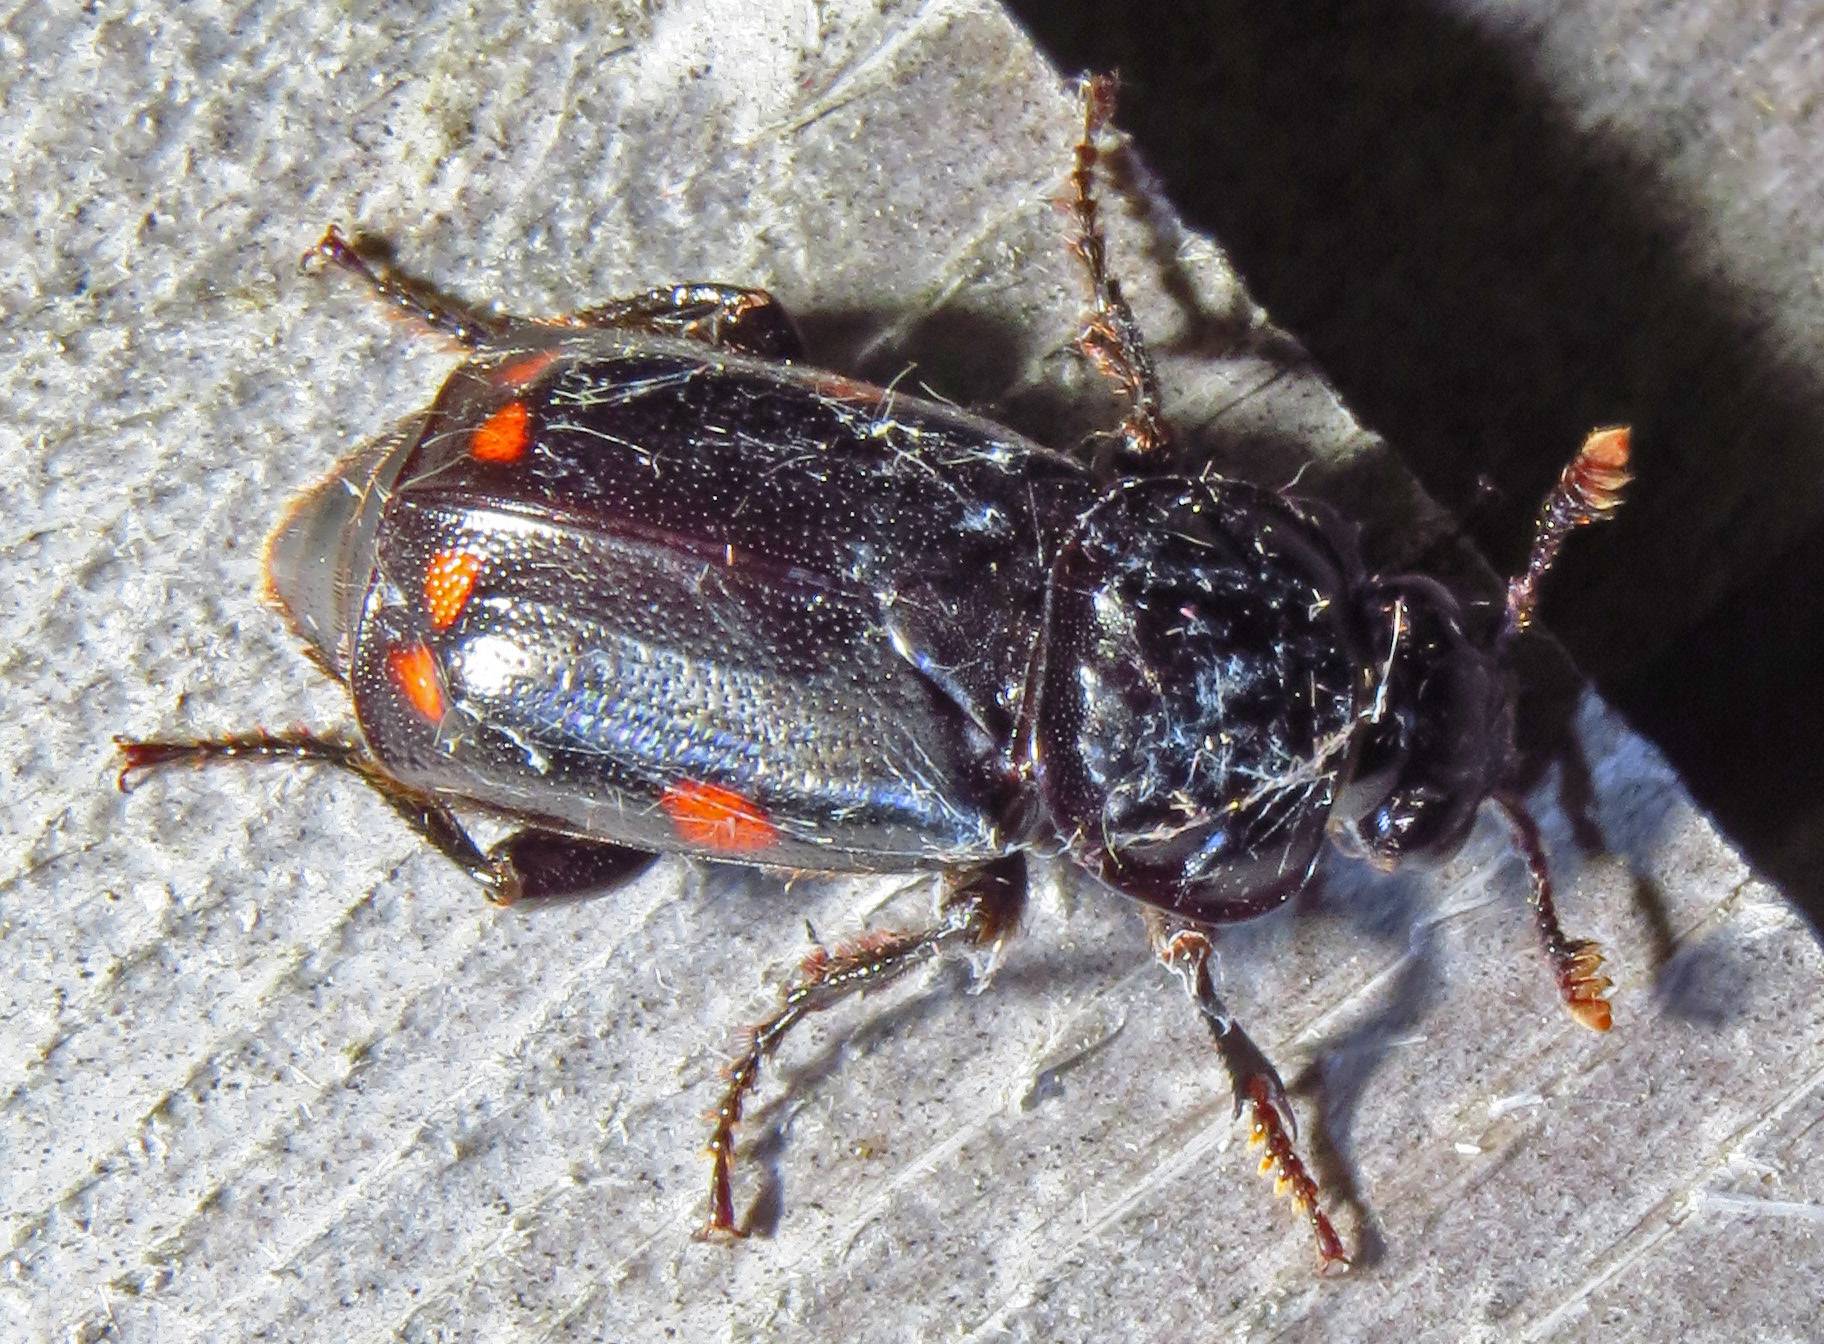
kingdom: Animalia
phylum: Arthropoda
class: Insecta
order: Coleoptera
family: Staphylinidae
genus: Nicrophorus
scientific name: Nicrophorus pustulatus
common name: Pustulated carrion beetle
